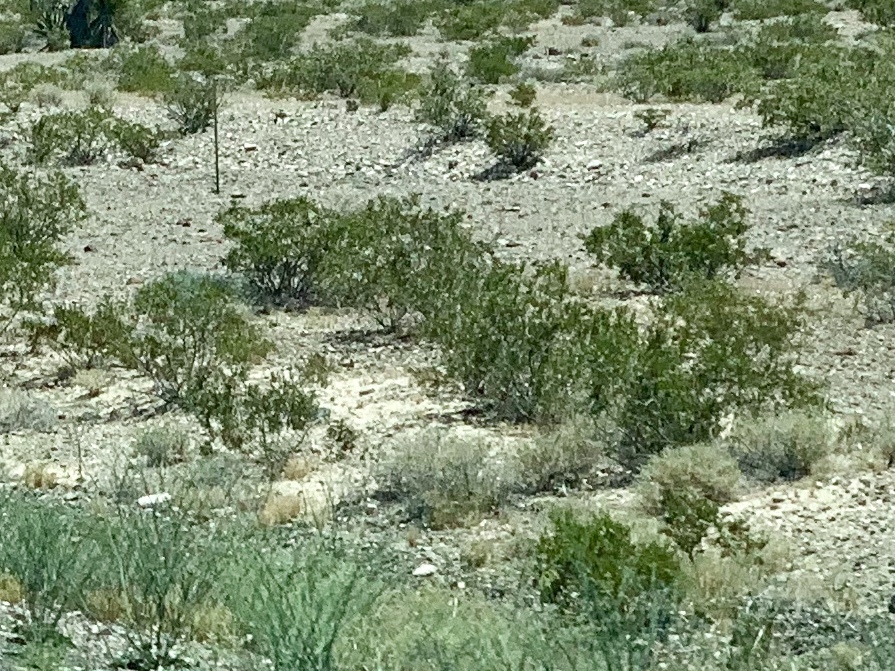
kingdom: Plantae
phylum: Tracheophyta
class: Magnoliopsida
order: Zygophyllales
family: Zygophyllaceae
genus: Larrea
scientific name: Larrea tridentata
